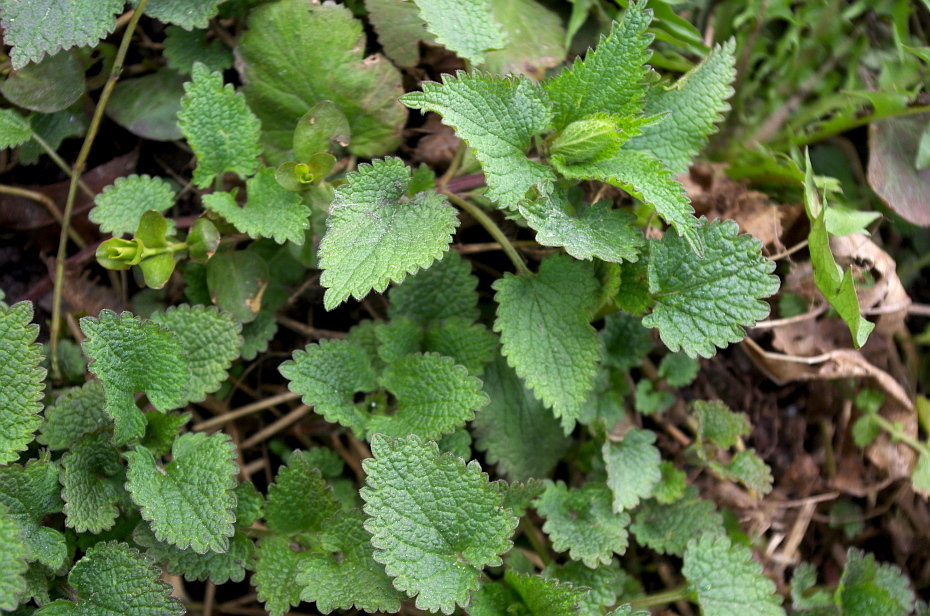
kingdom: Plantae
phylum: Tracheophyta
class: Magnoliopsida
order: Lamiales
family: Lamiaceae
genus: Lamium
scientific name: Lamium album
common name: White dead-nettle
